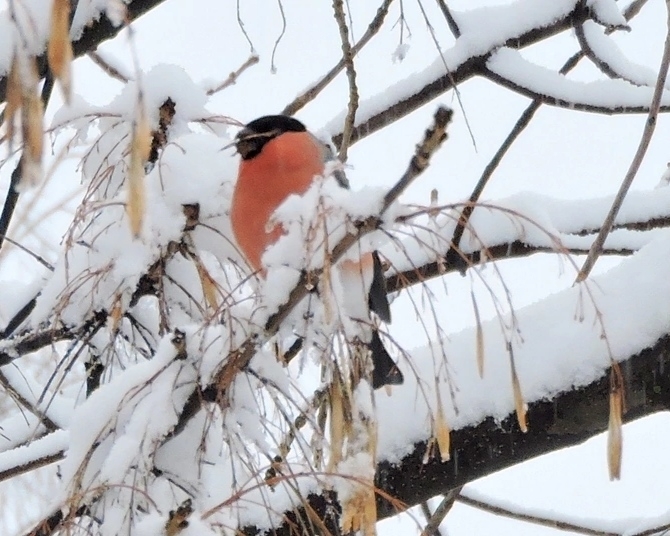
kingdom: Animalia
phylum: Chordata
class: Aves
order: Passeriformes
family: Fringillidae
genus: Pyrrhula
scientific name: Pyrrhula pyrrhula
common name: Eurasian bullfinch
